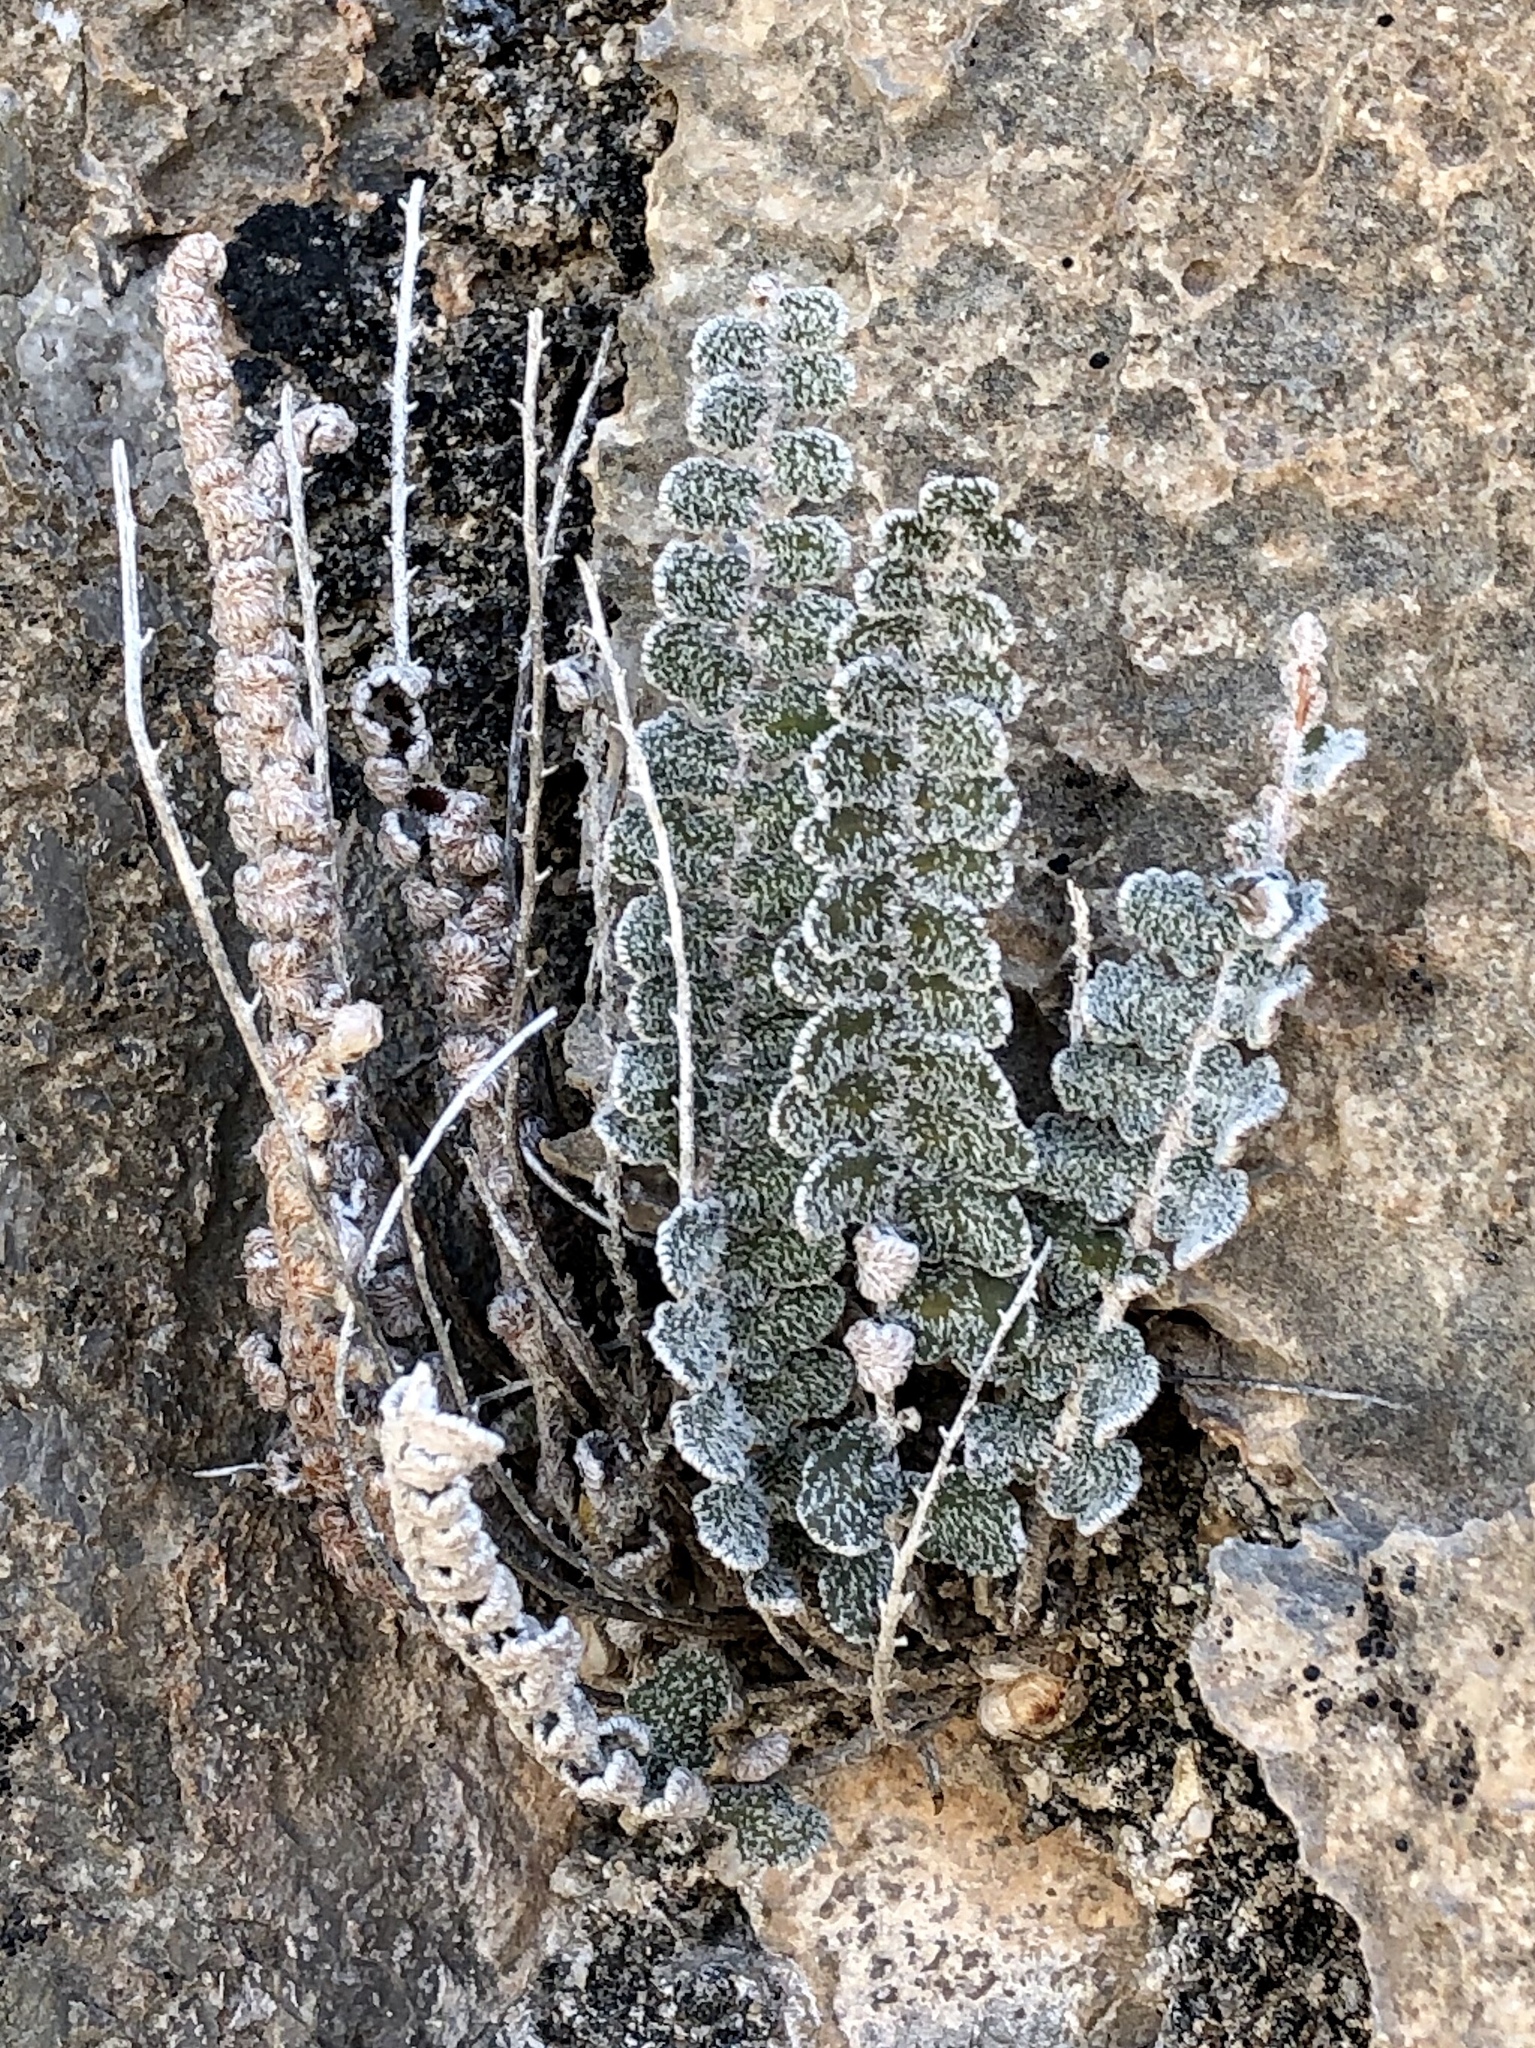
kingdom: Plantae
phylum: Tracheophyta
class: Polypodiopsida
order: Polypodiales
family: Pteridaceae
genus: Astrolepis
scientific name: Astrolepis integerrima
